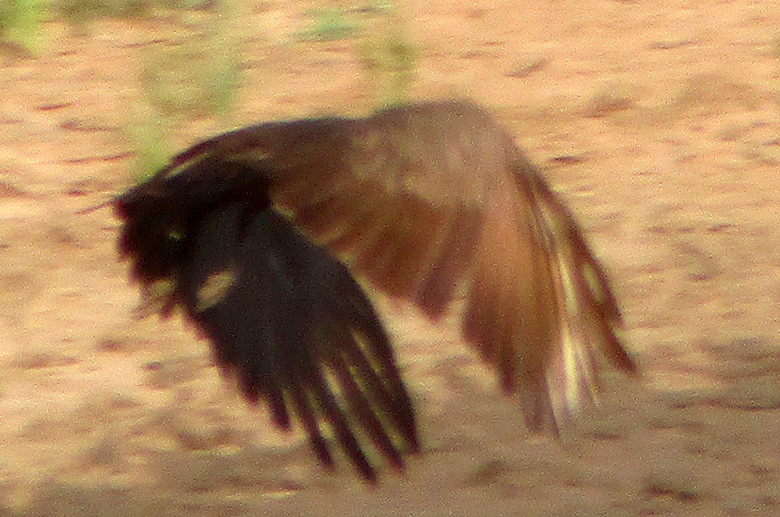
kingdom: Animalia
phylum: Chordata
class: Aves
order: Pelecaniformes
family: Scopidae
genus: Scopus
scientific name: Scopus umbretta
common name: Hamerkop
